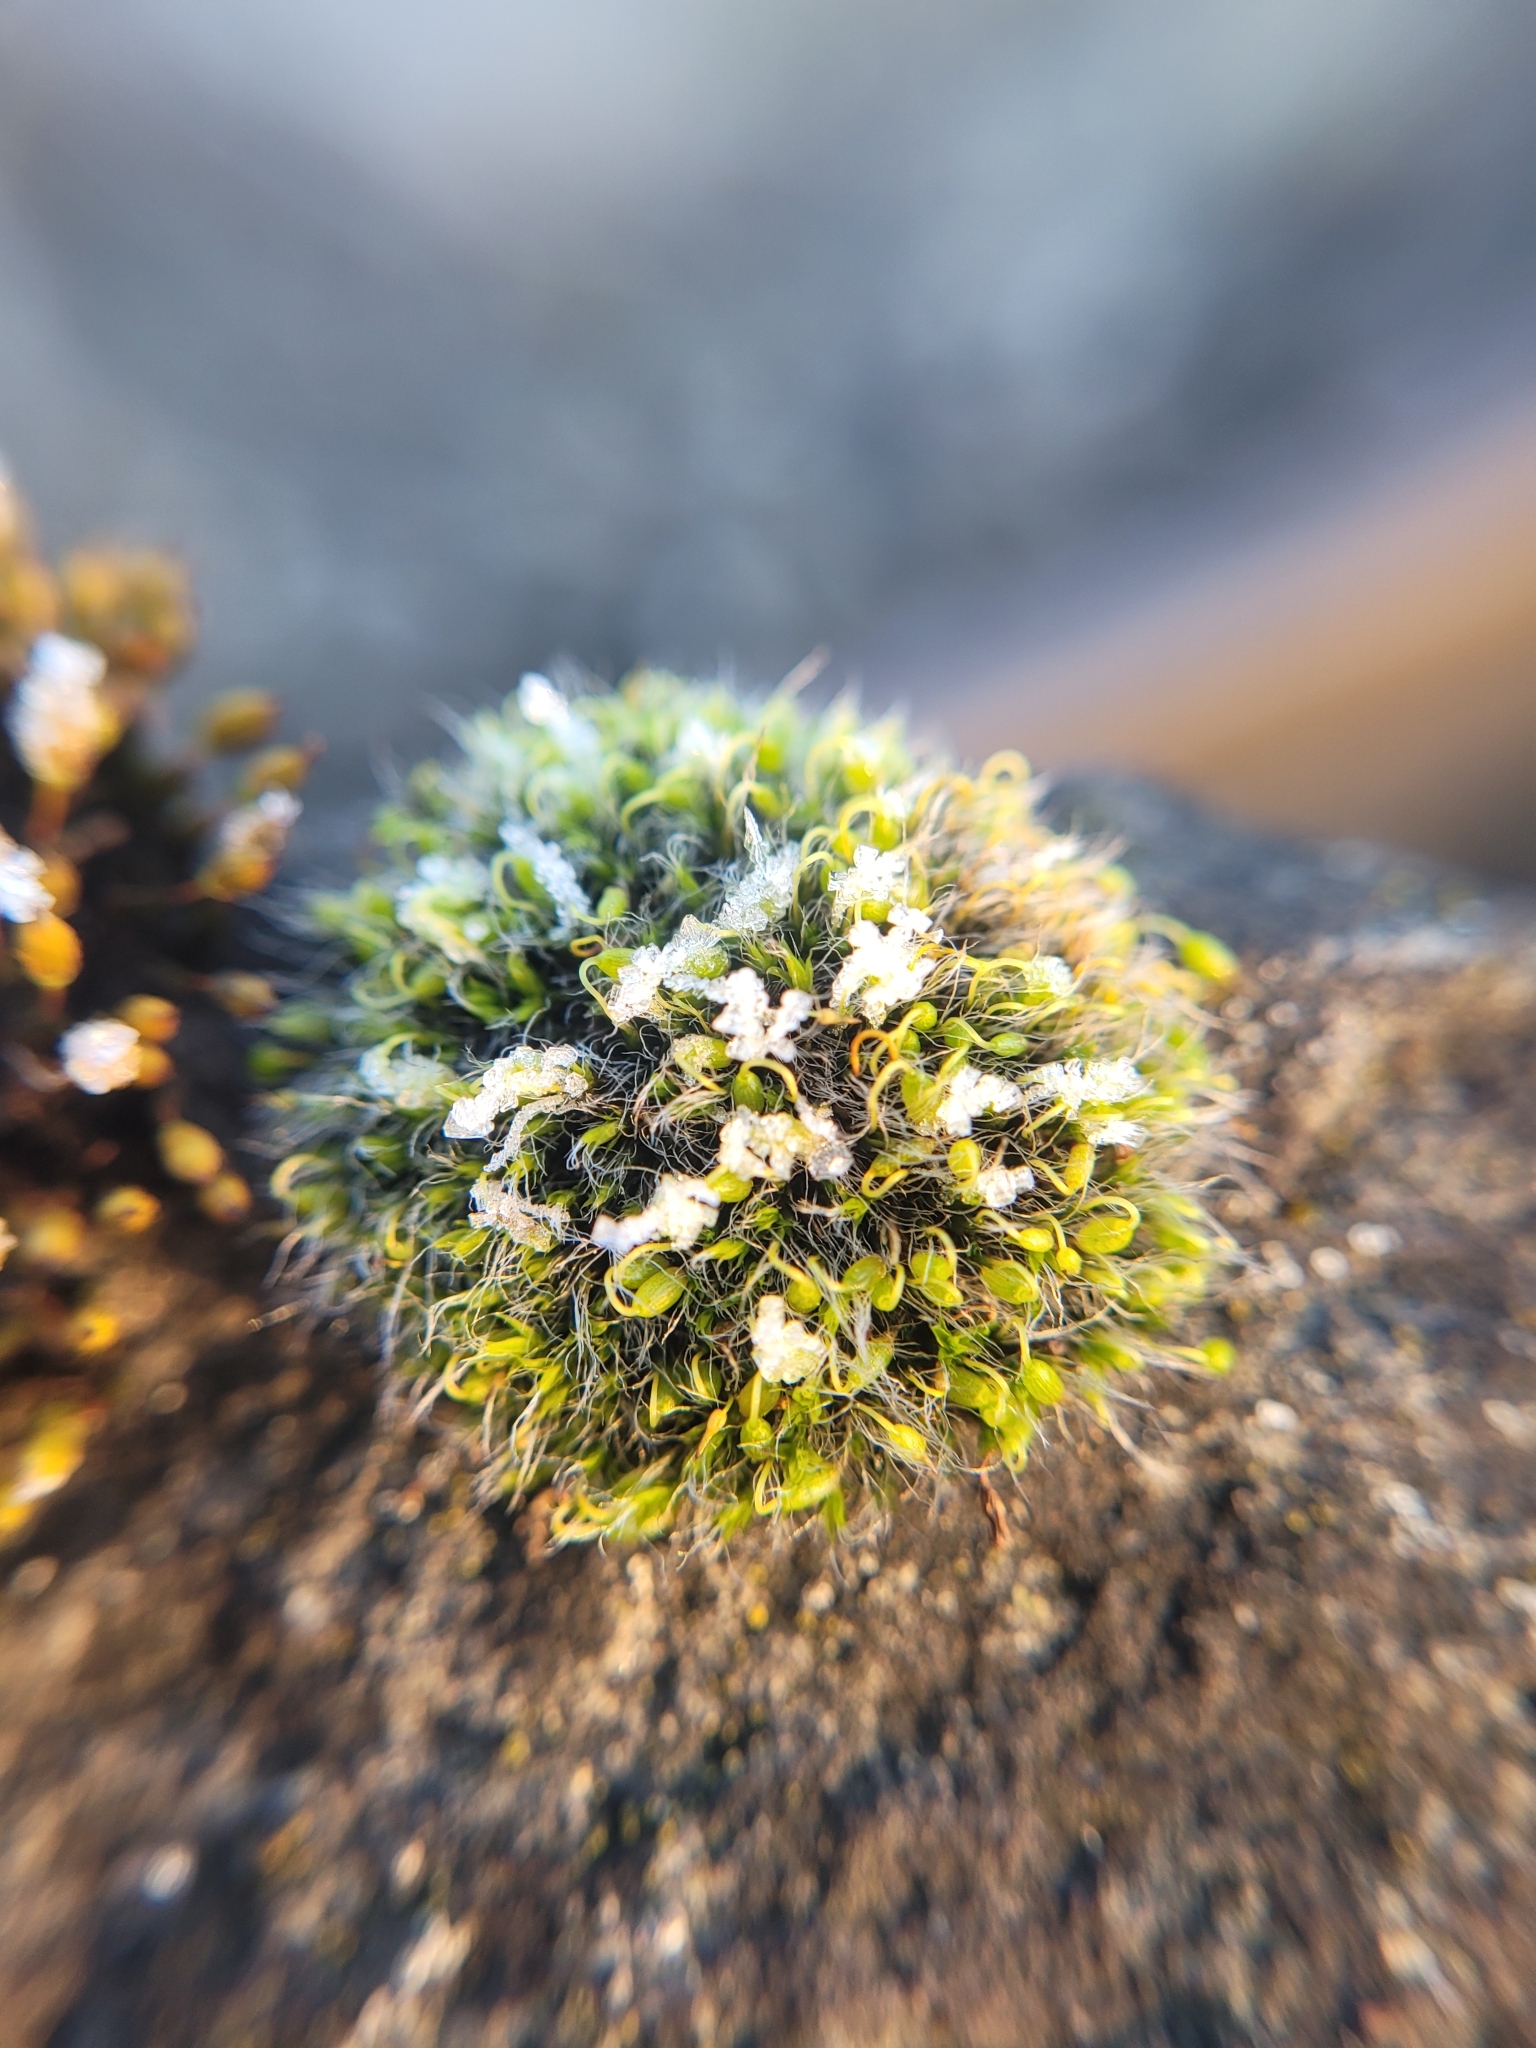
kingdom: Plantae
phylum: Bryophyta
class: Bryopsida
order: Grimmiales
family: Grimmiaceae
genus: Grimmia
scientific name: Grimmia pulvinata
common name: Grey-cushioned grimmia
